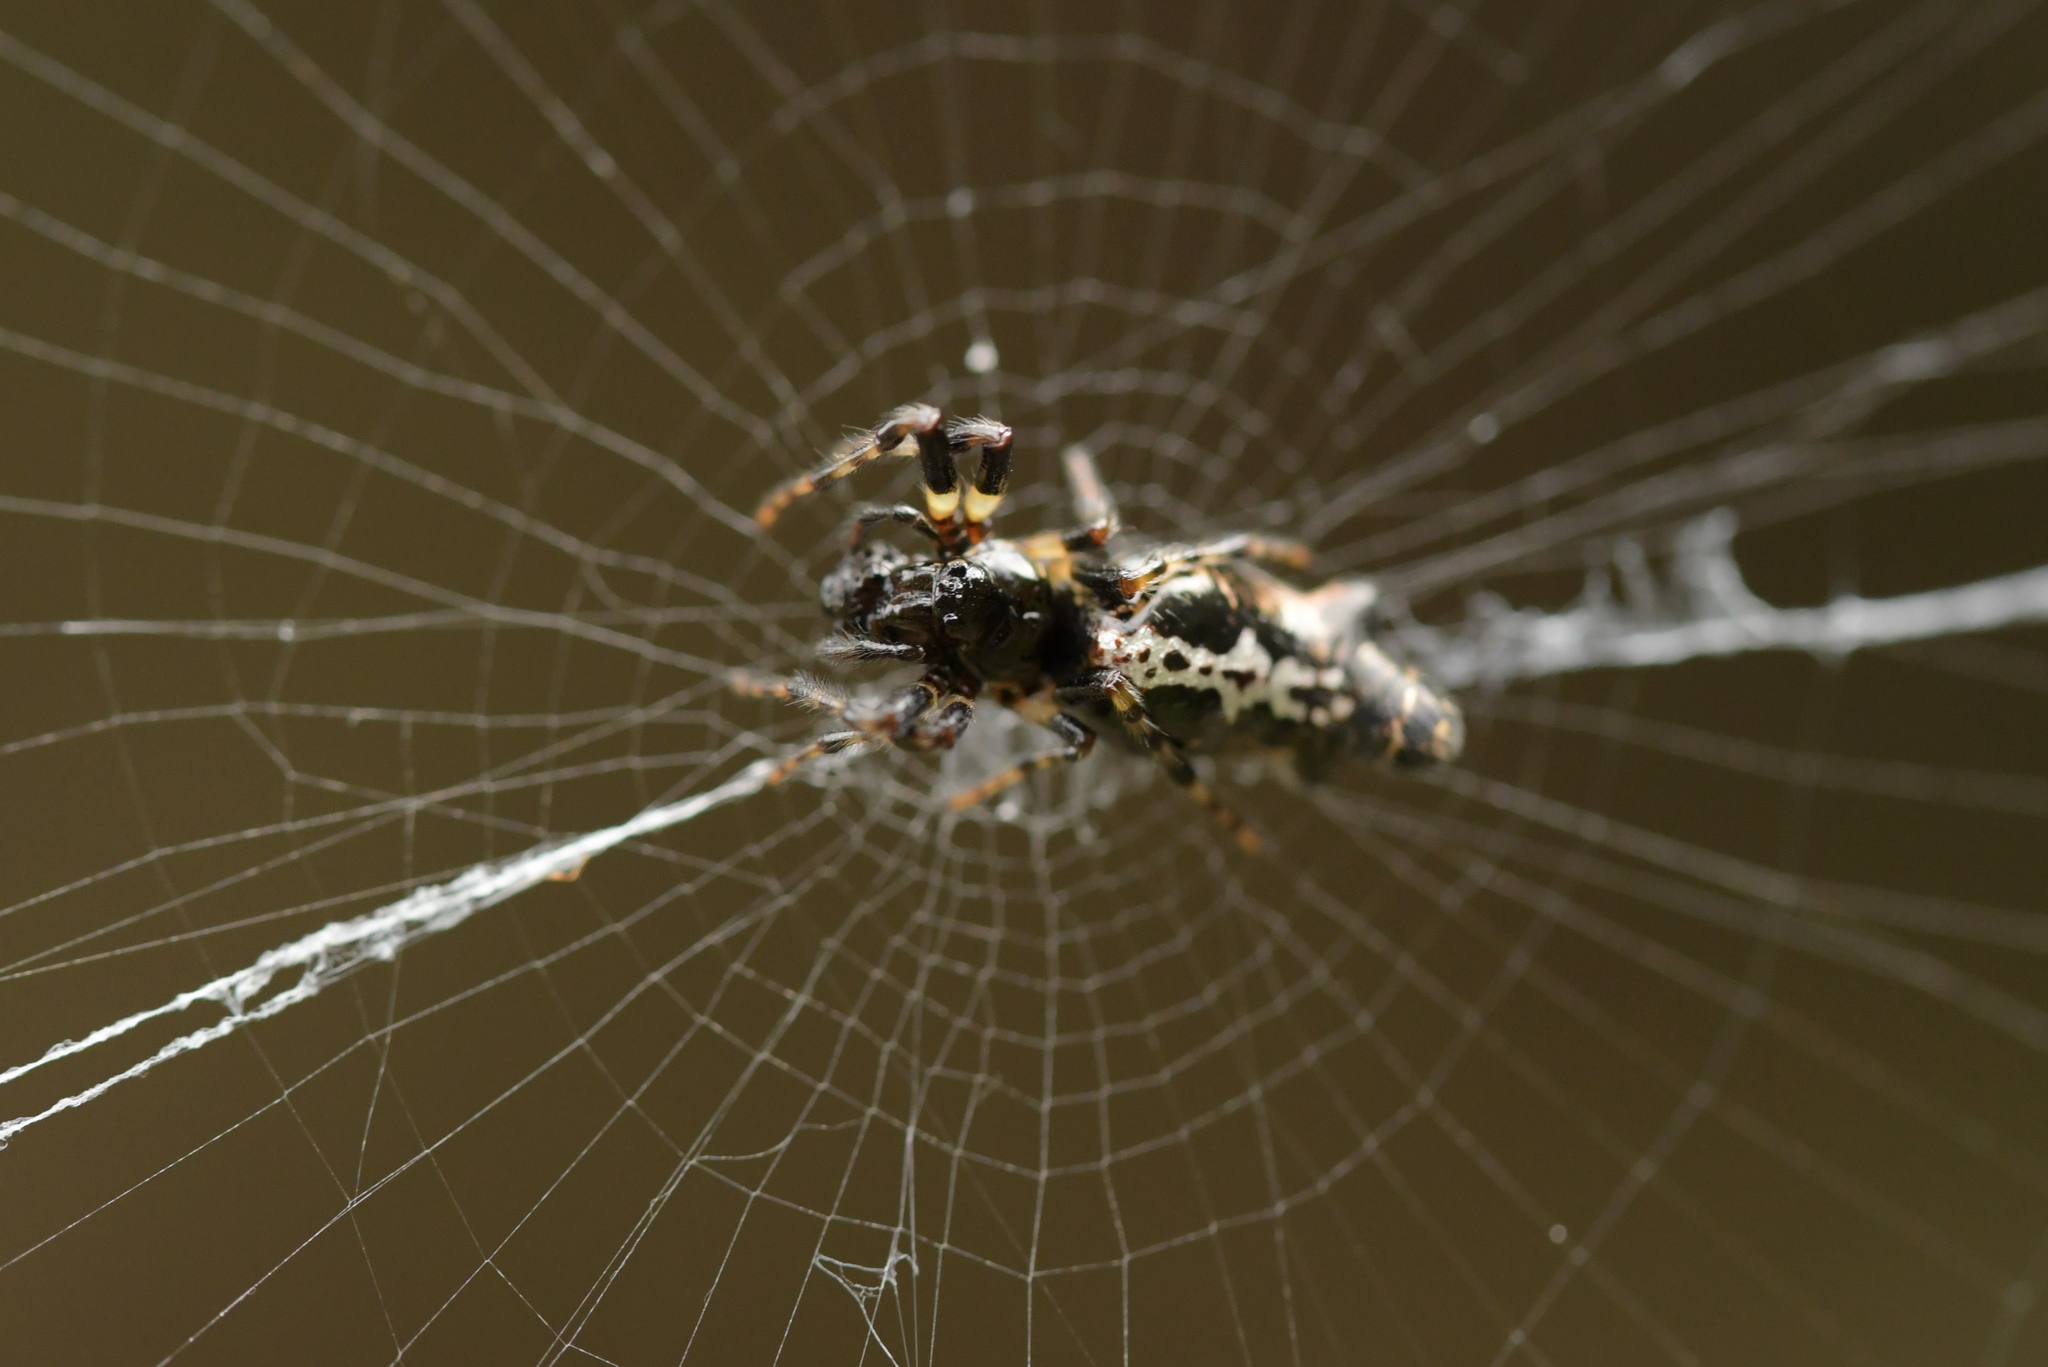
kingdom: Animalia
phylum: Arthropoda
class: Arachnida
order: Araneae
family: Araneidae
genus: Cyclosa
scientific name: Cyclosa trilobata
